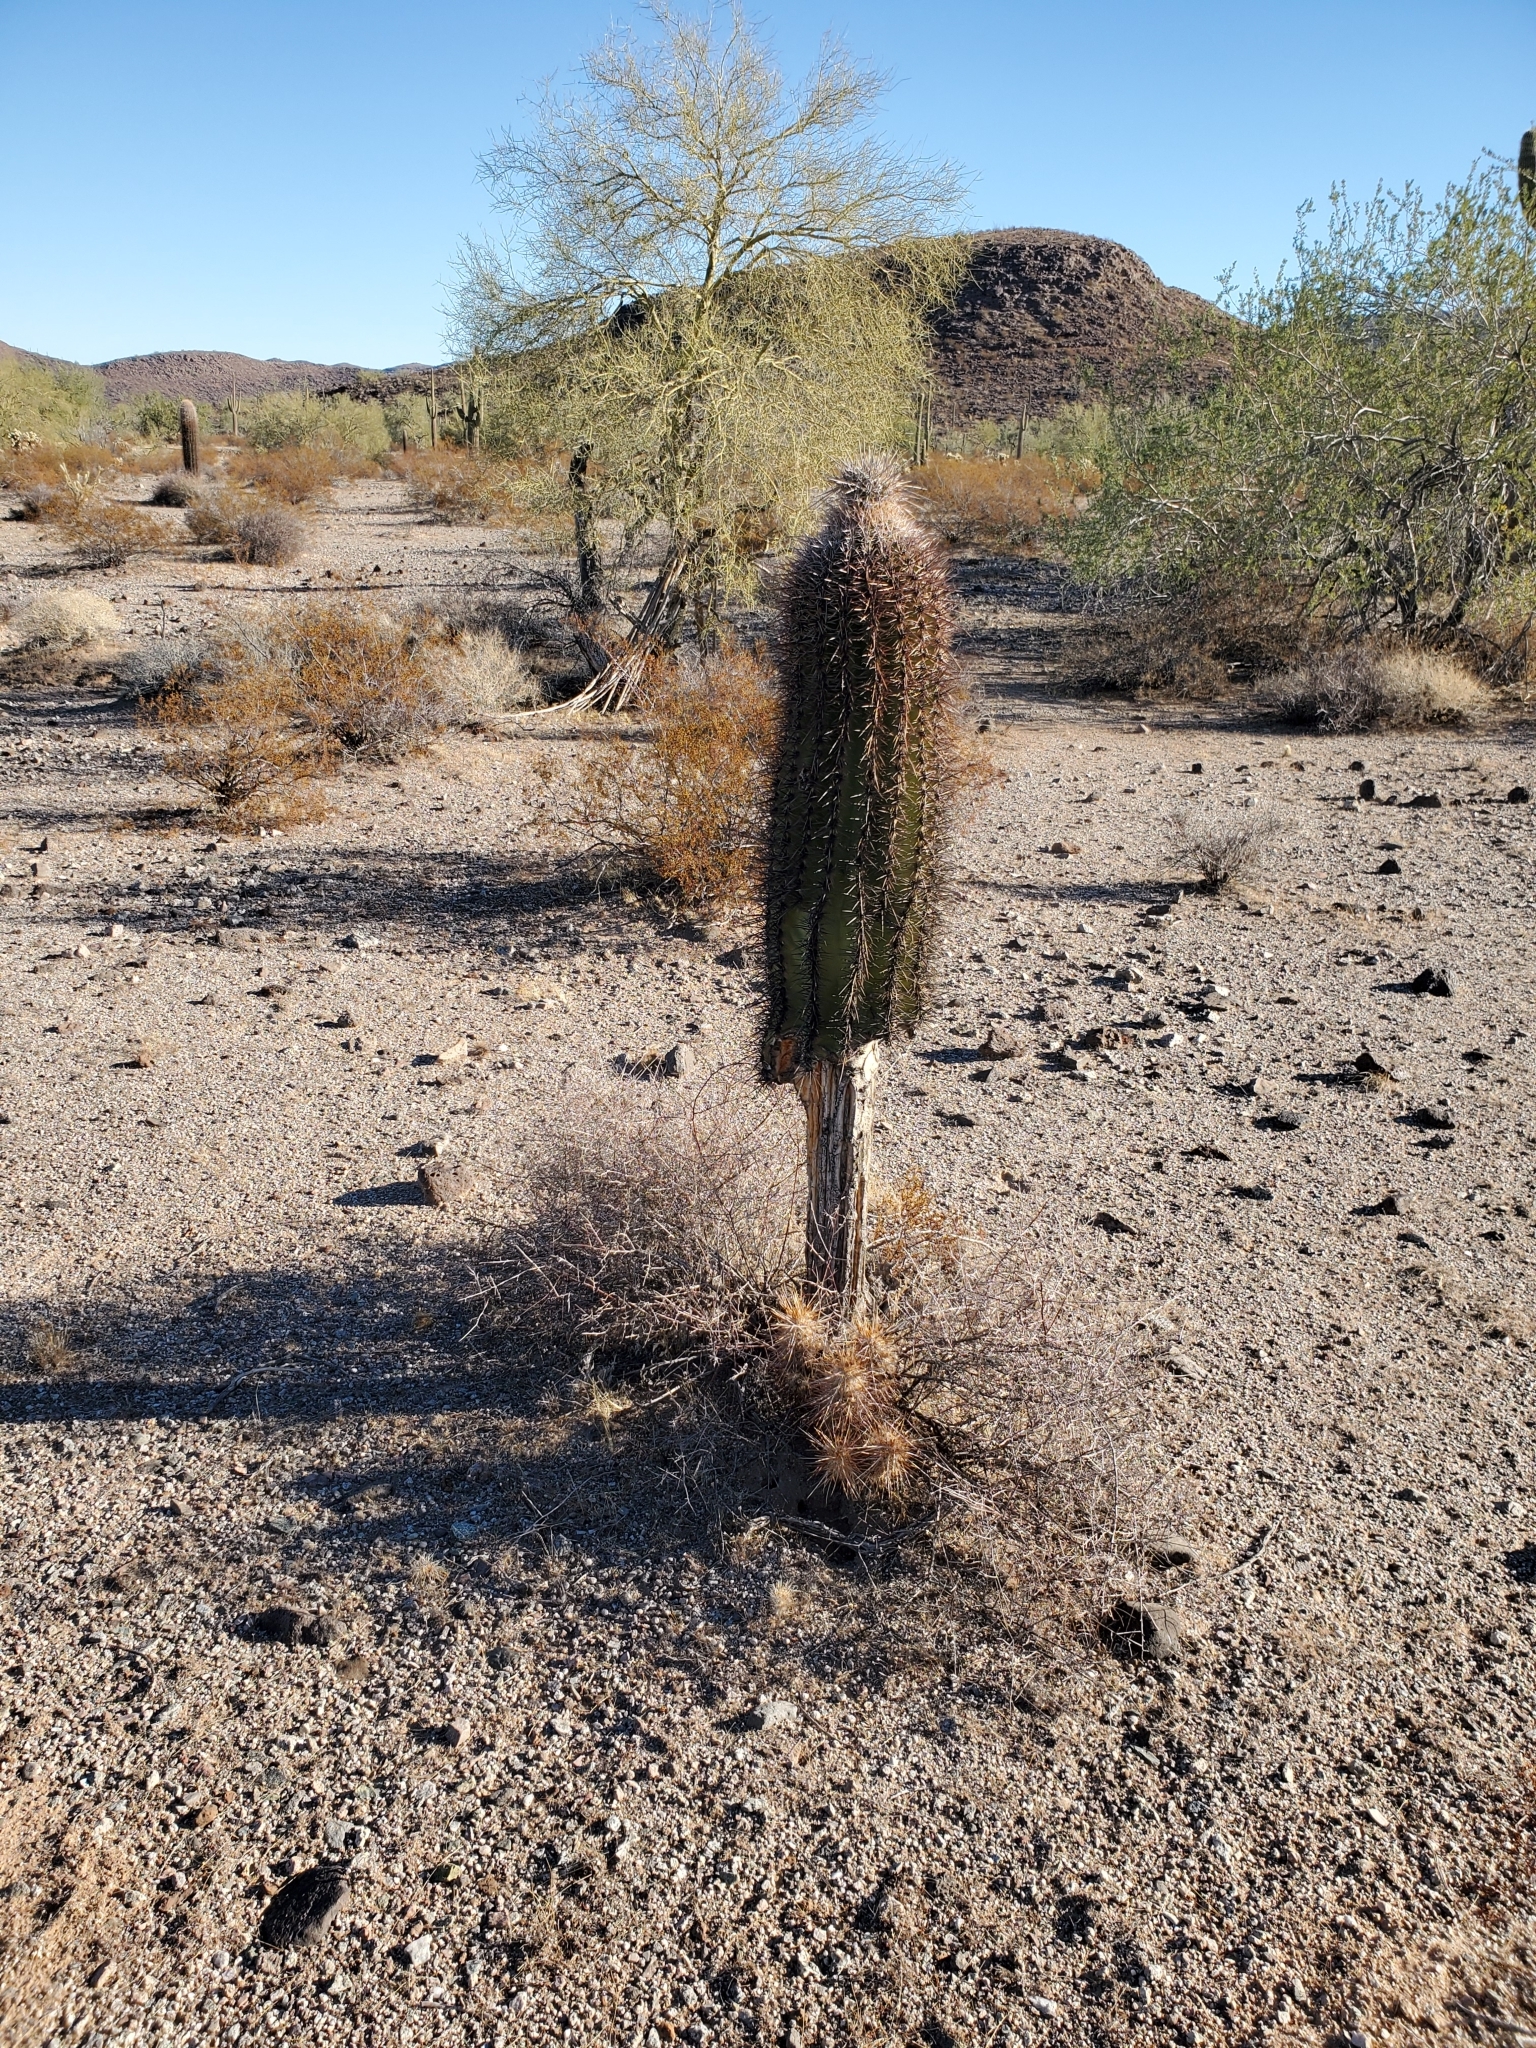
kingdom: Plantae
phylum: Tracheophyta
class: Magnoliopsida
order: Caryophyllales
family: Cactaceae
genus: Carnegiea
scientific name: Carnegiea gigantea
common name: Saguaro
